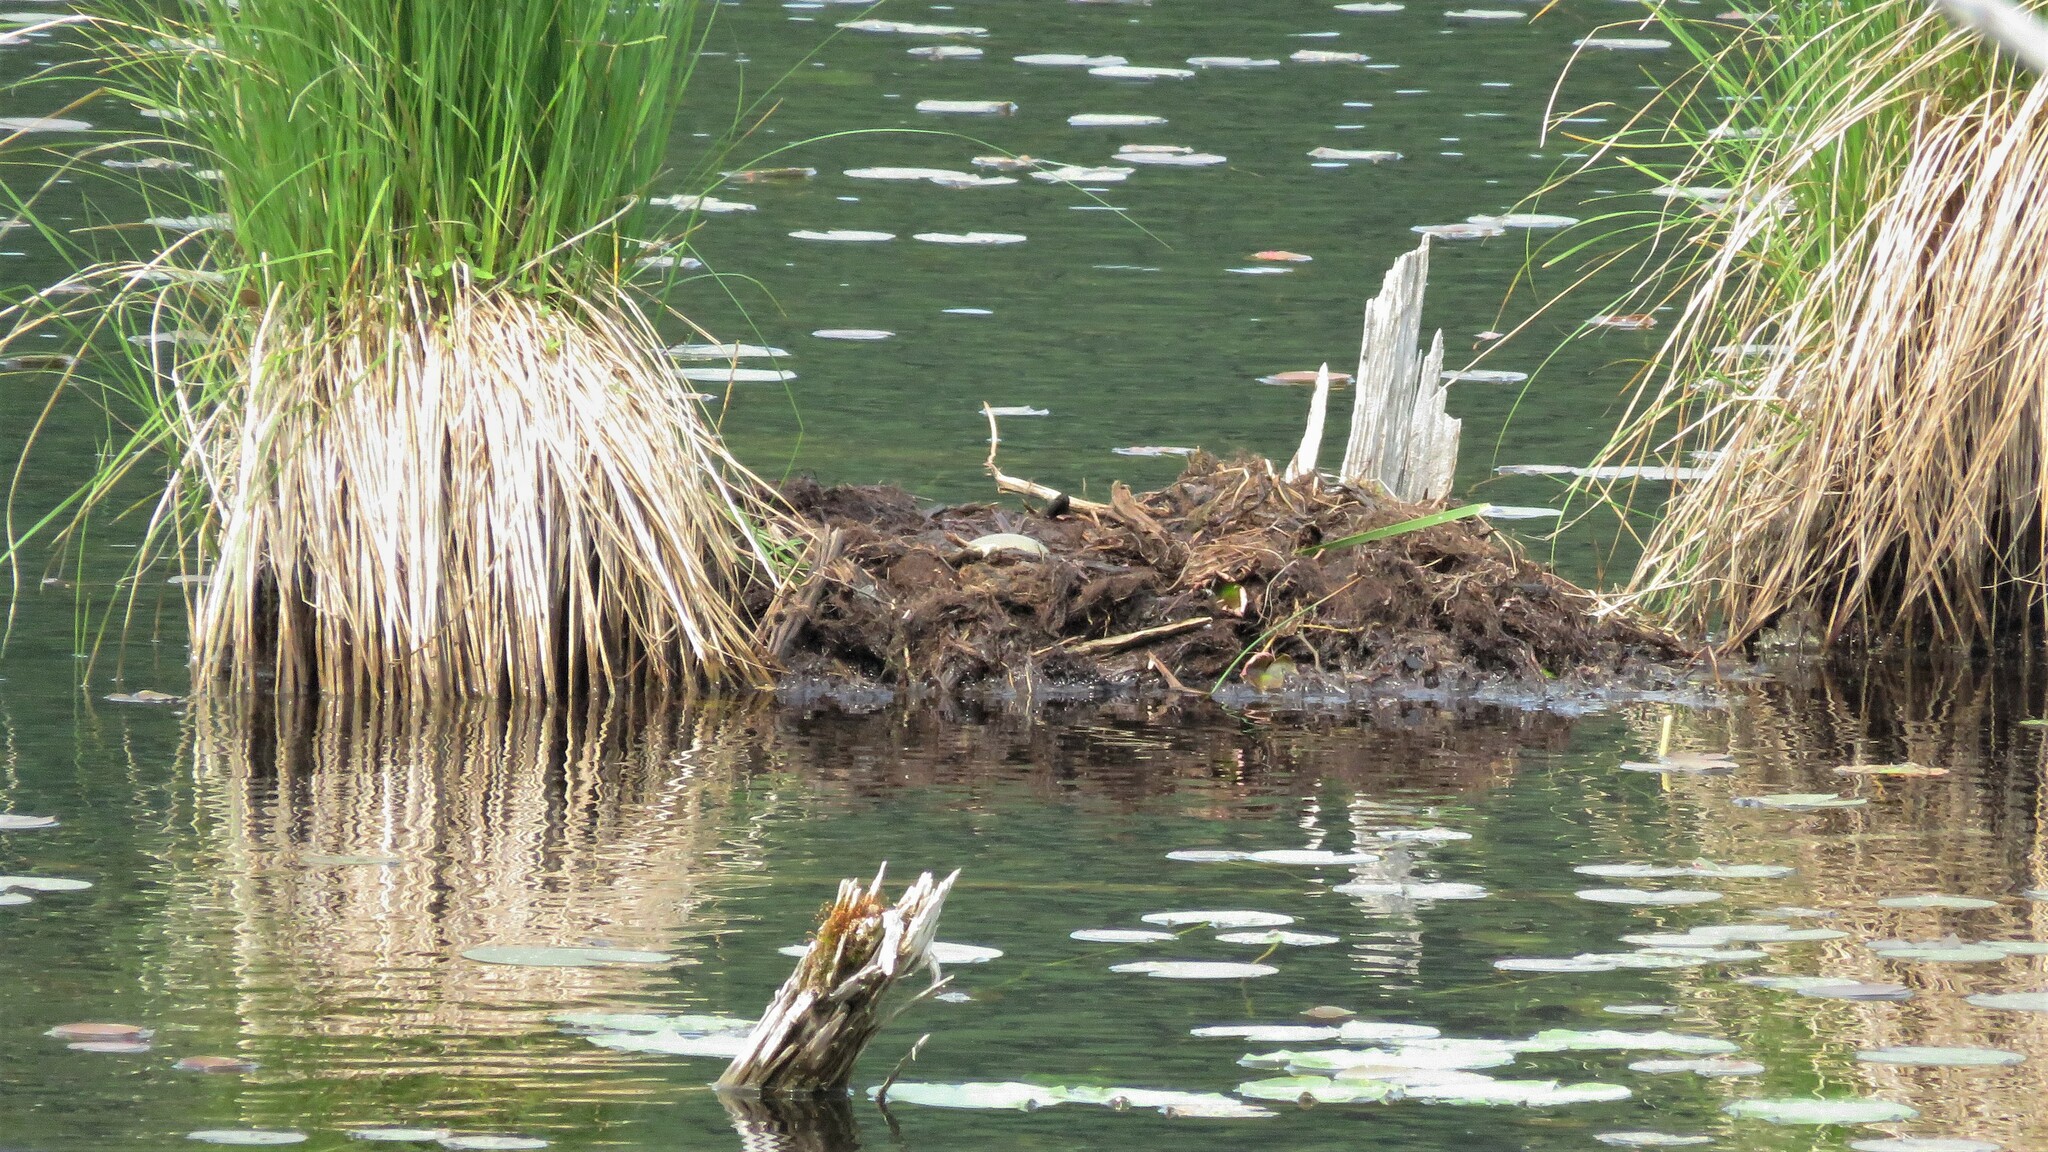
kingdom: Animalia
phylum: Chordata
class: Aves
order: Gaviiformes
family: Gaviidae
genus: Gavia
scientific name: Gavia immer
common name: Common loon
